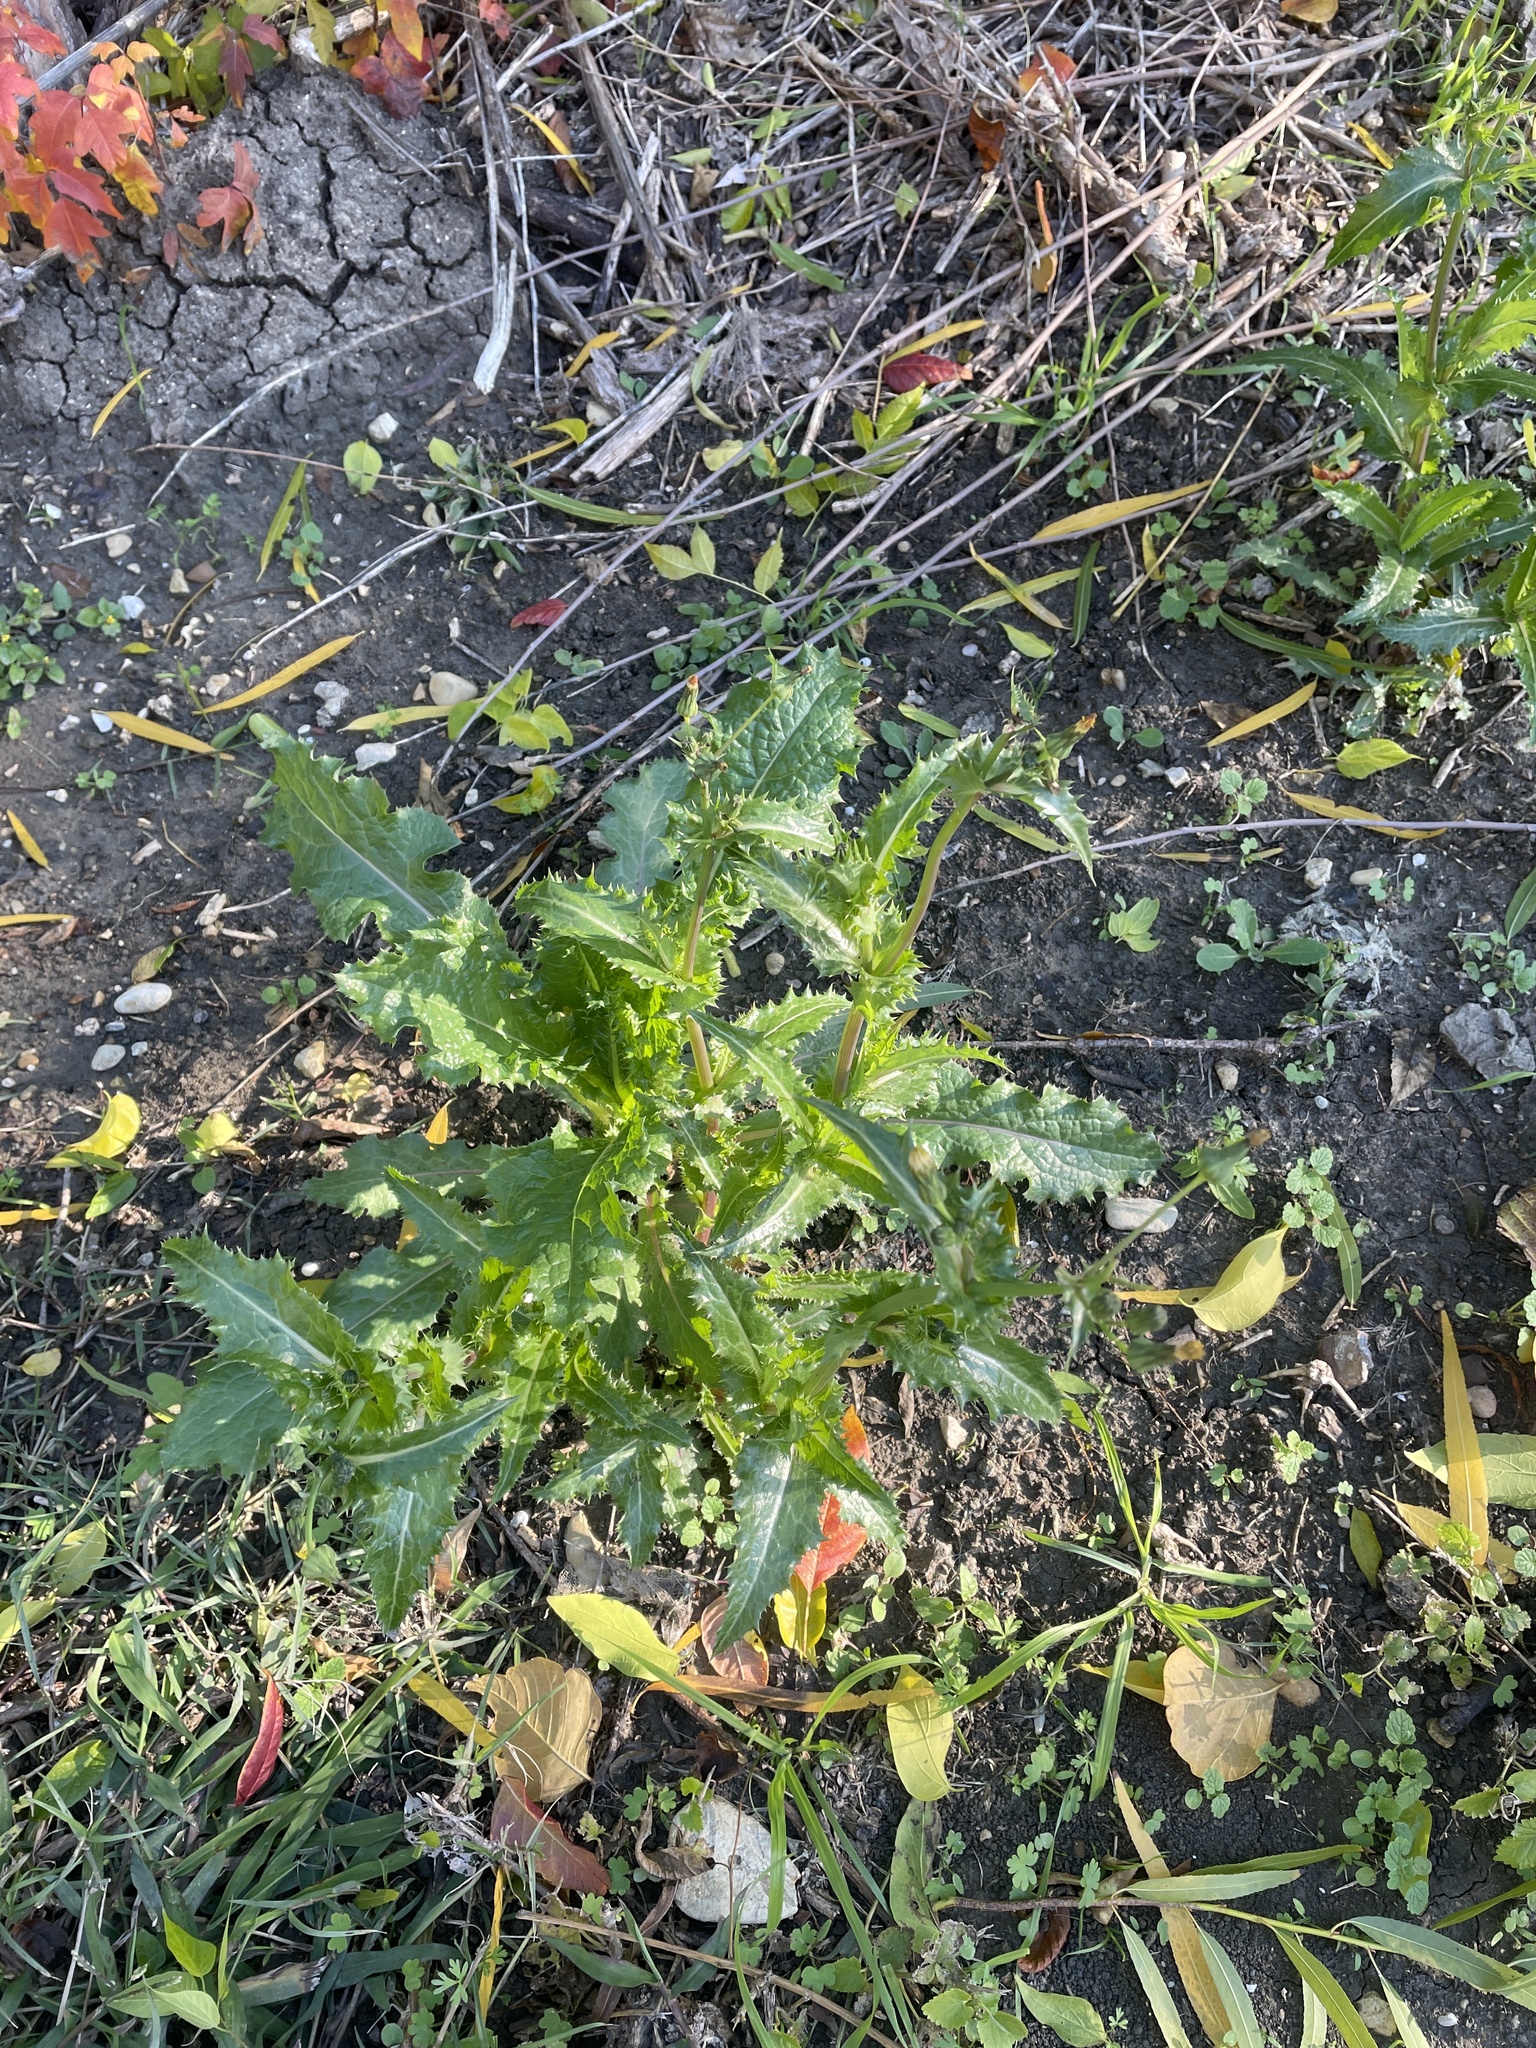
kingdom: Plantae
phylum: Tracheophyta
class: Magnoliopsida
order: Asterales
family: Asteraceae
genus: Sonchus
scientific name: Sonchus asper
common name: Prickly sow-thistle
